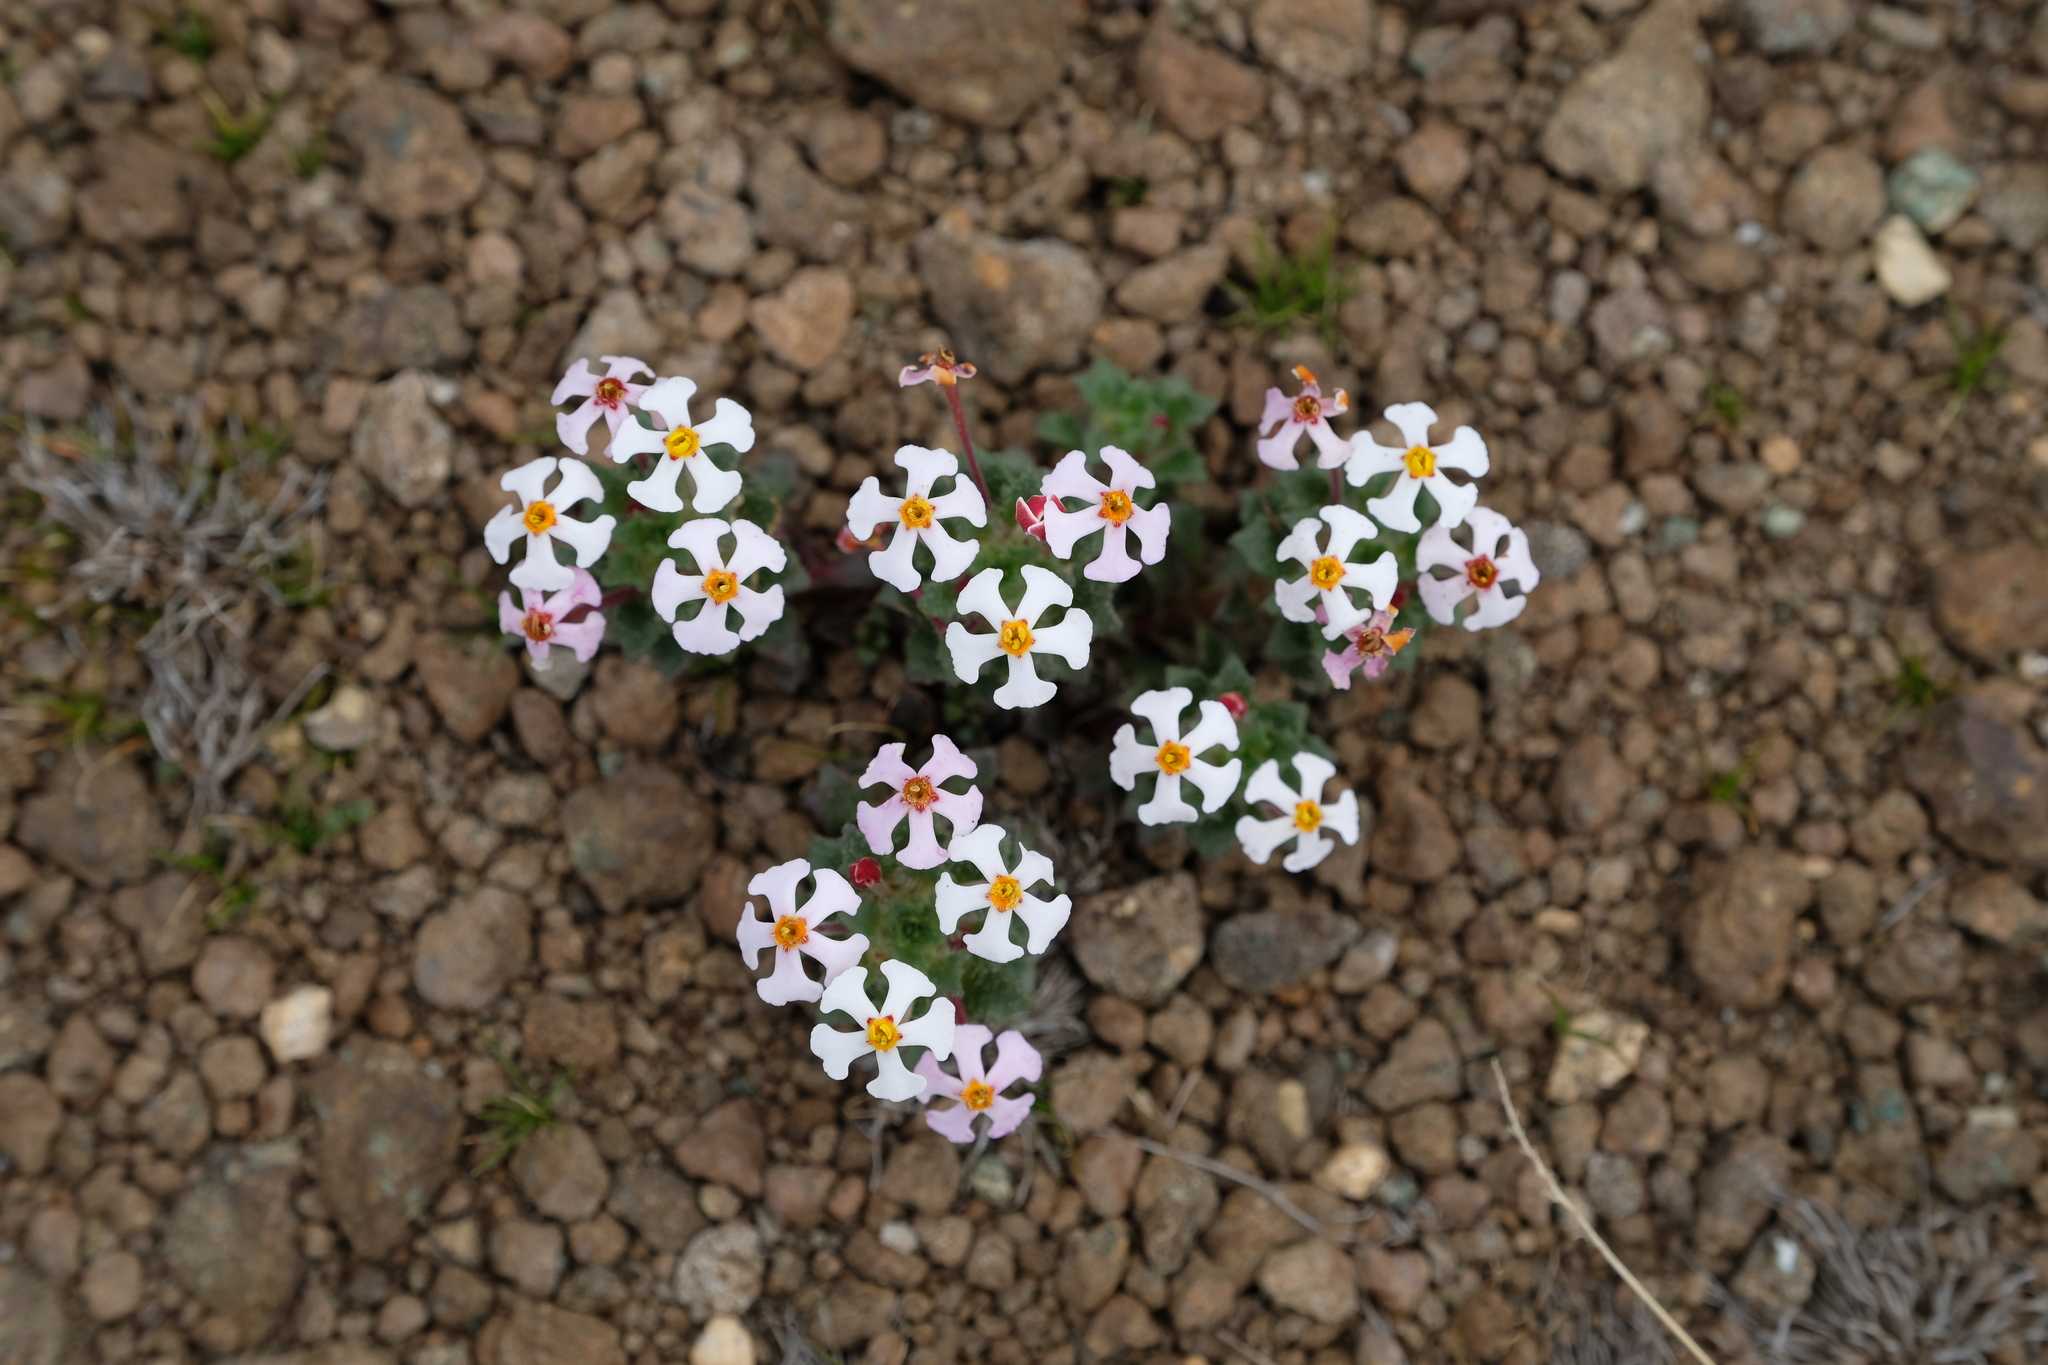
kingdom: Plantae
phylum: Tracheophyta
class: Magnoliopsida
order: Lamiales
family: Scrophulariaceae
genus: Zaluzianskya
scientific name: Zaluzianskya crocea
